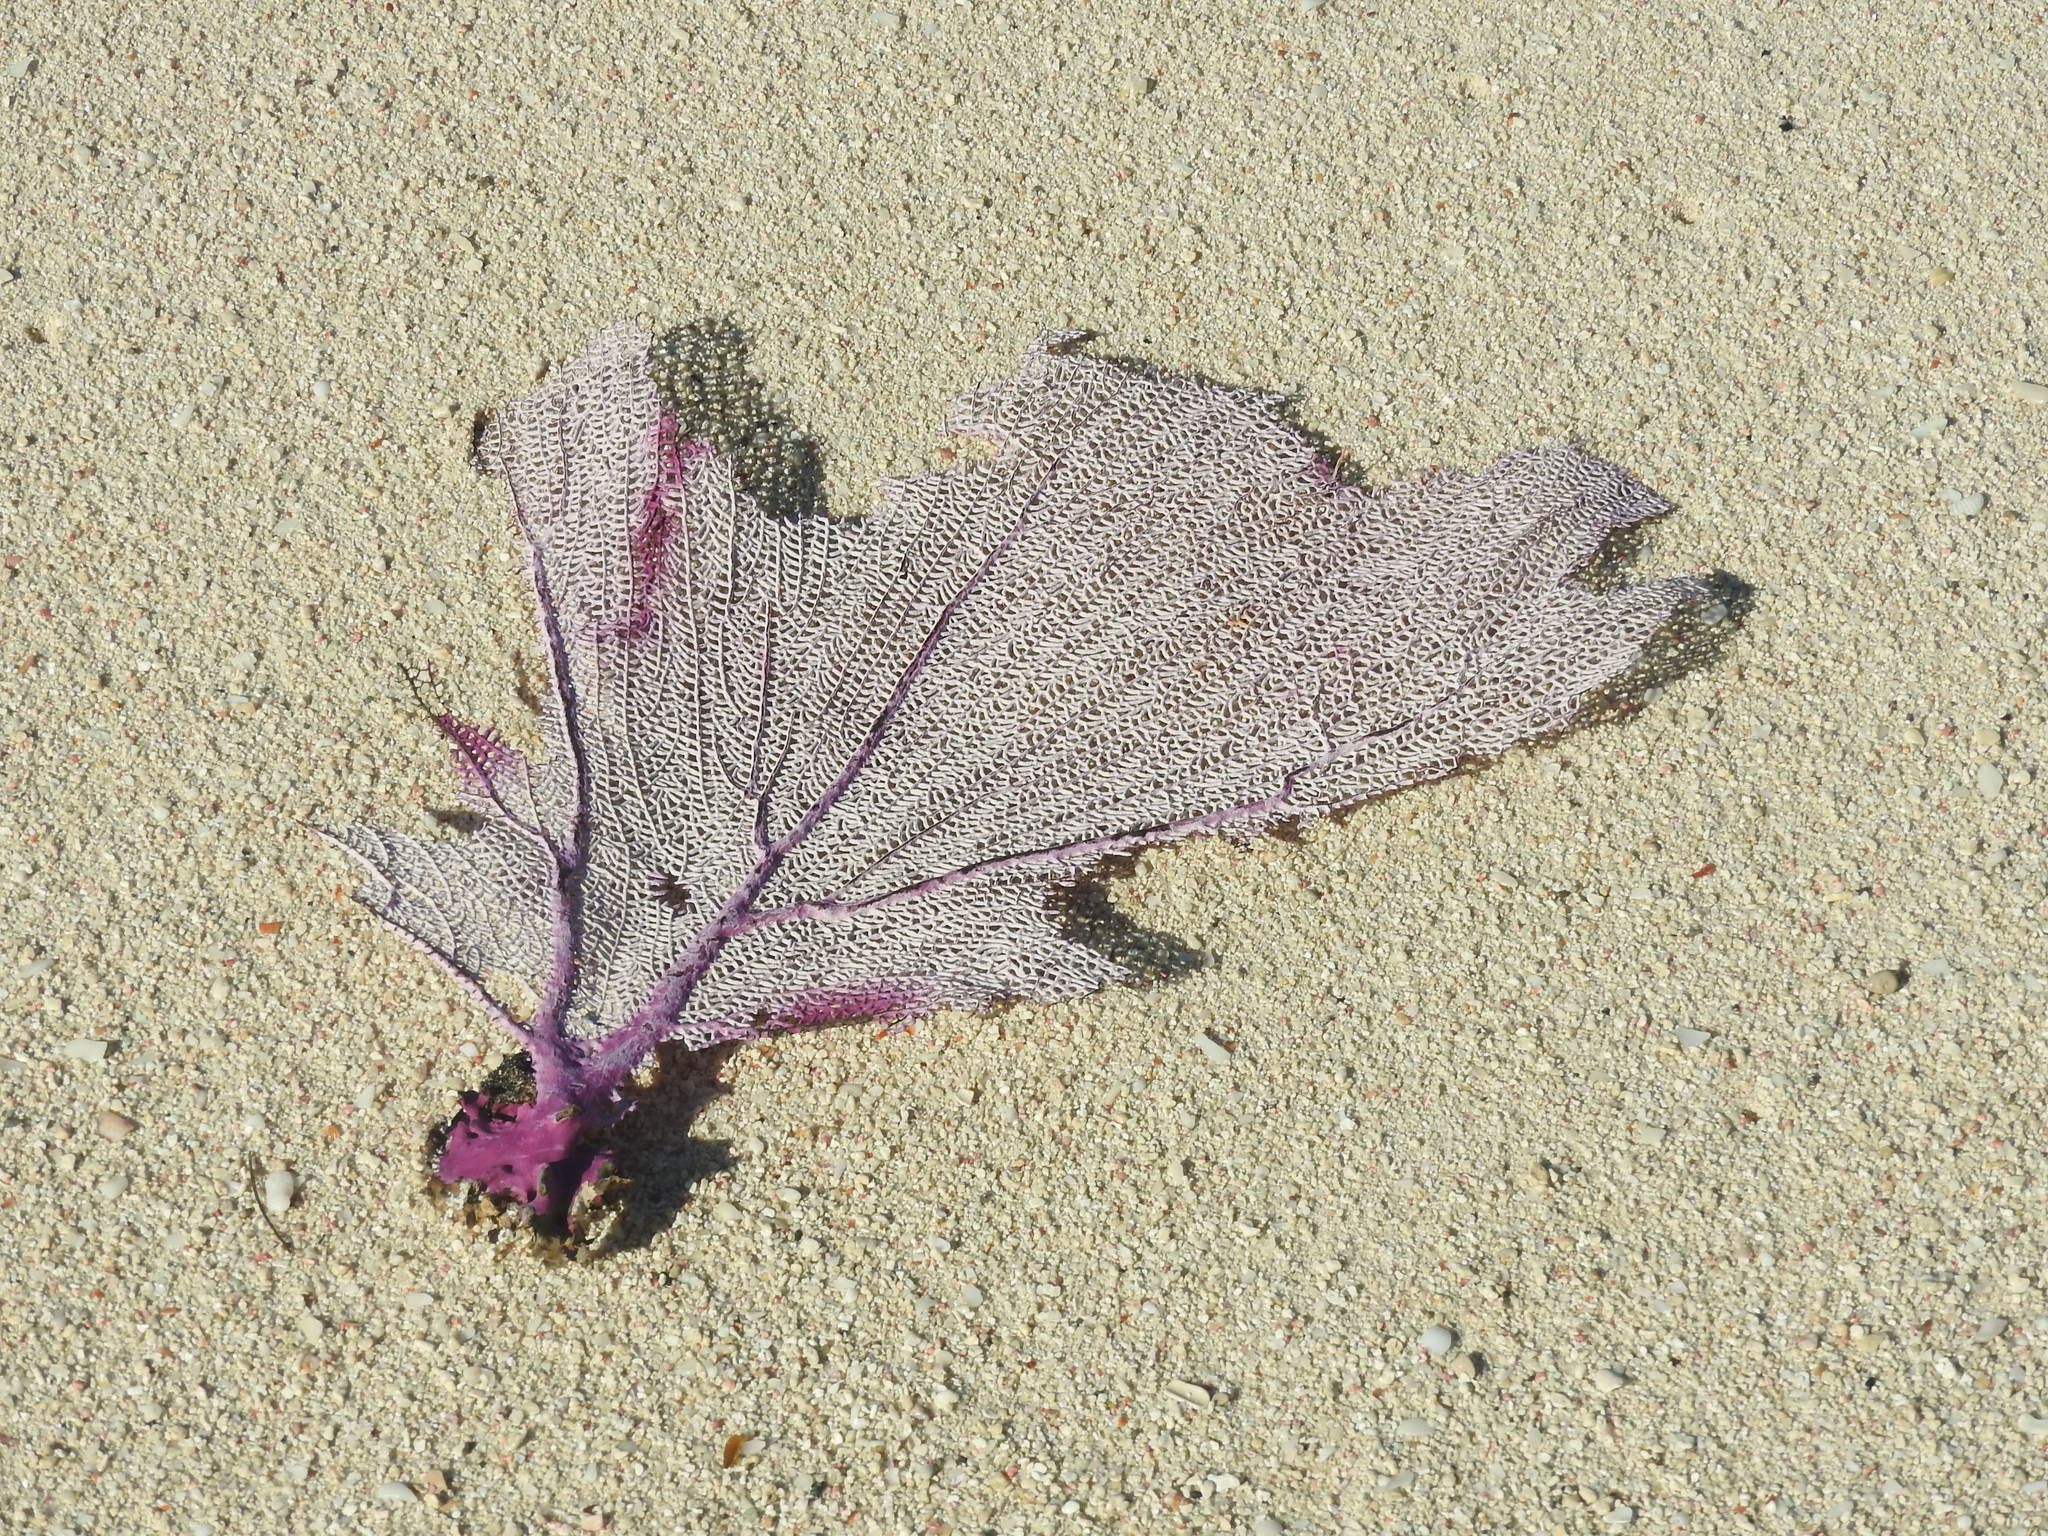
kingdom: Animalia
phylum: Cnidaria
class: Anthozoa
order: Malacalcyonacea
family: Gorgoniidae
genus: Gorgonia
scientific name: Gorgonia ventalina
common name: Common sea fan
